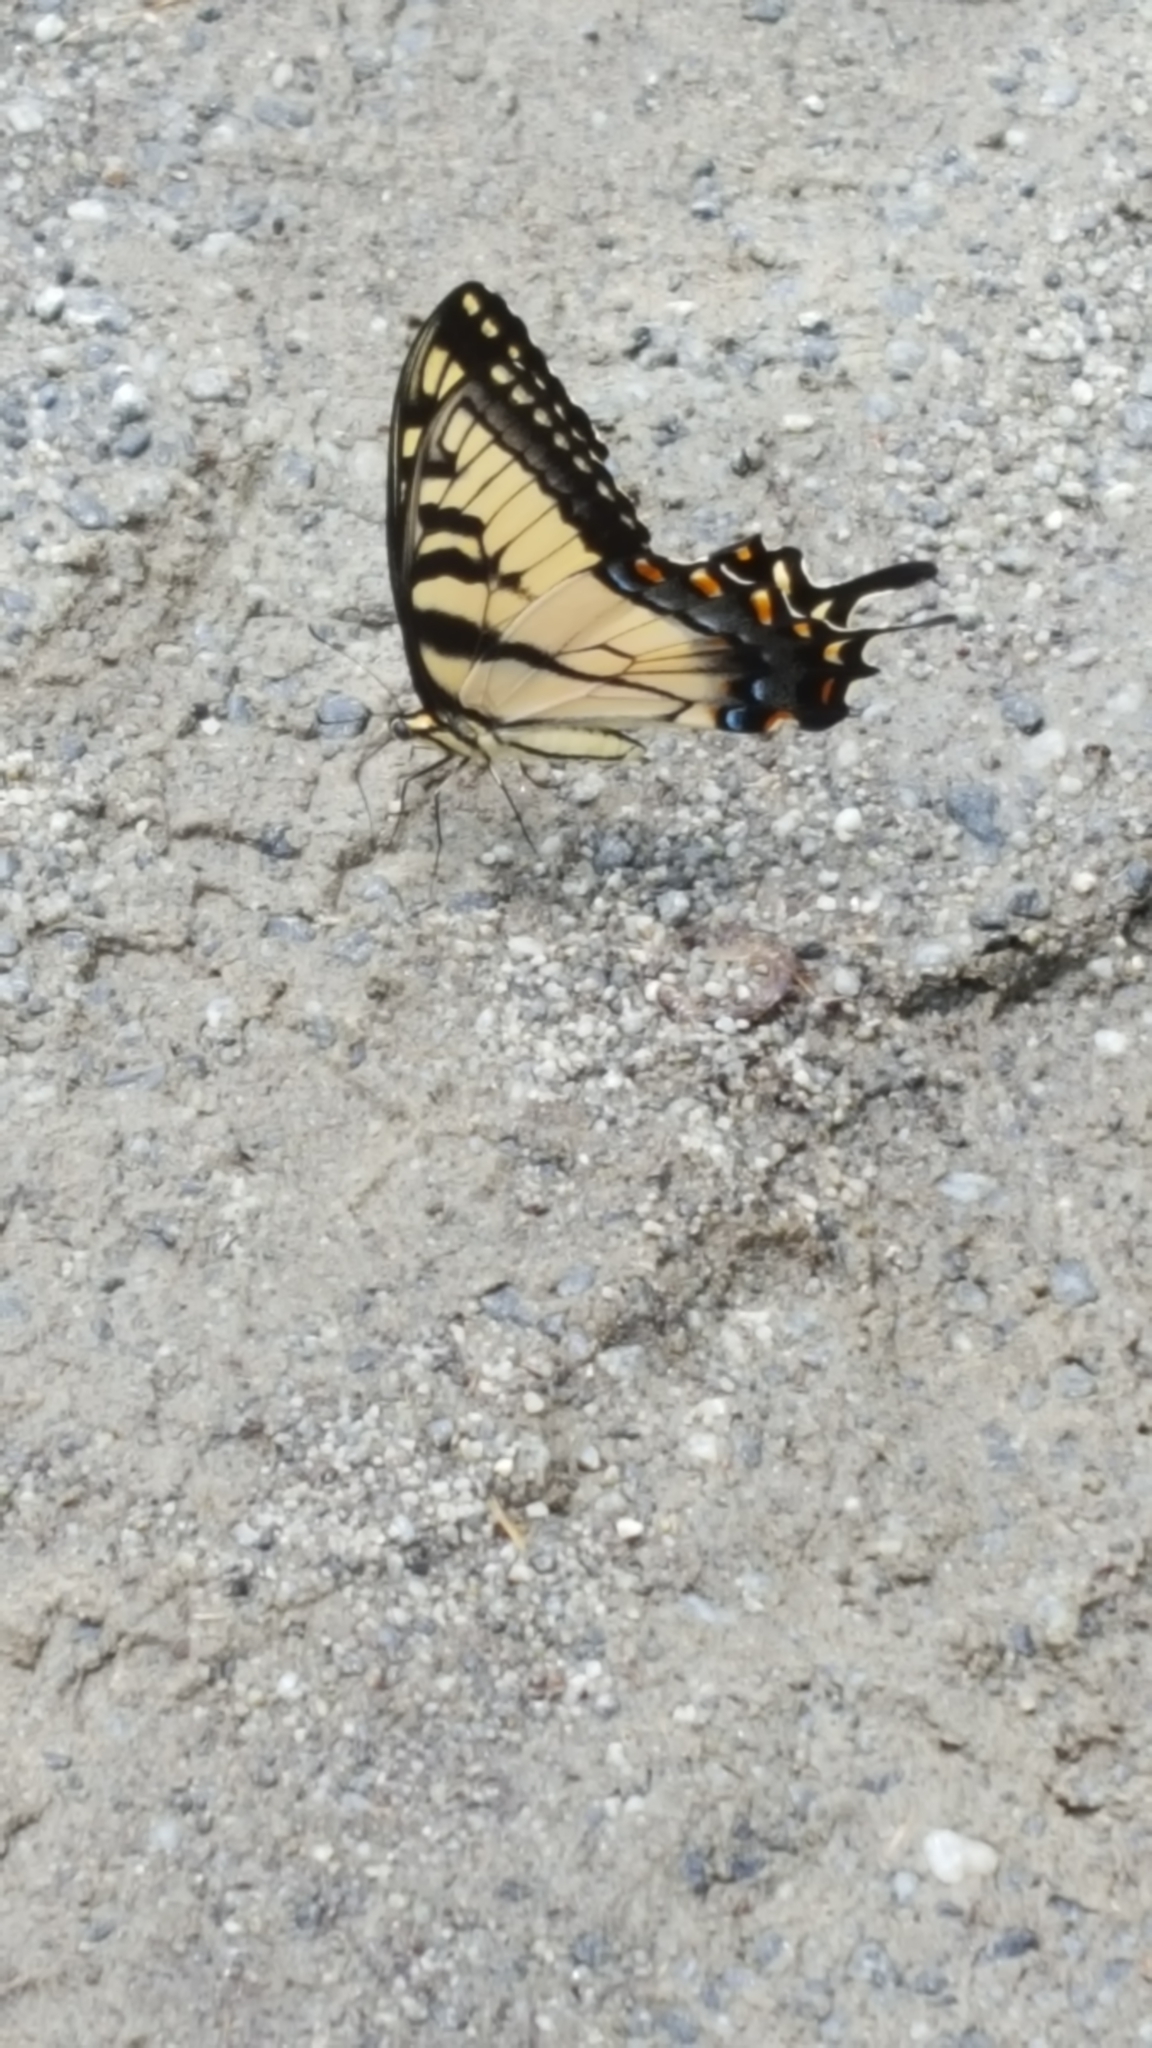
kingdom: Animalia
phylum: Arthropoda
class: Insecta
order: Lepidoptera
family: Papilionidae
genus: Papilio
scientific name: Papilio glaucus
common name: Tiger swallowtail
